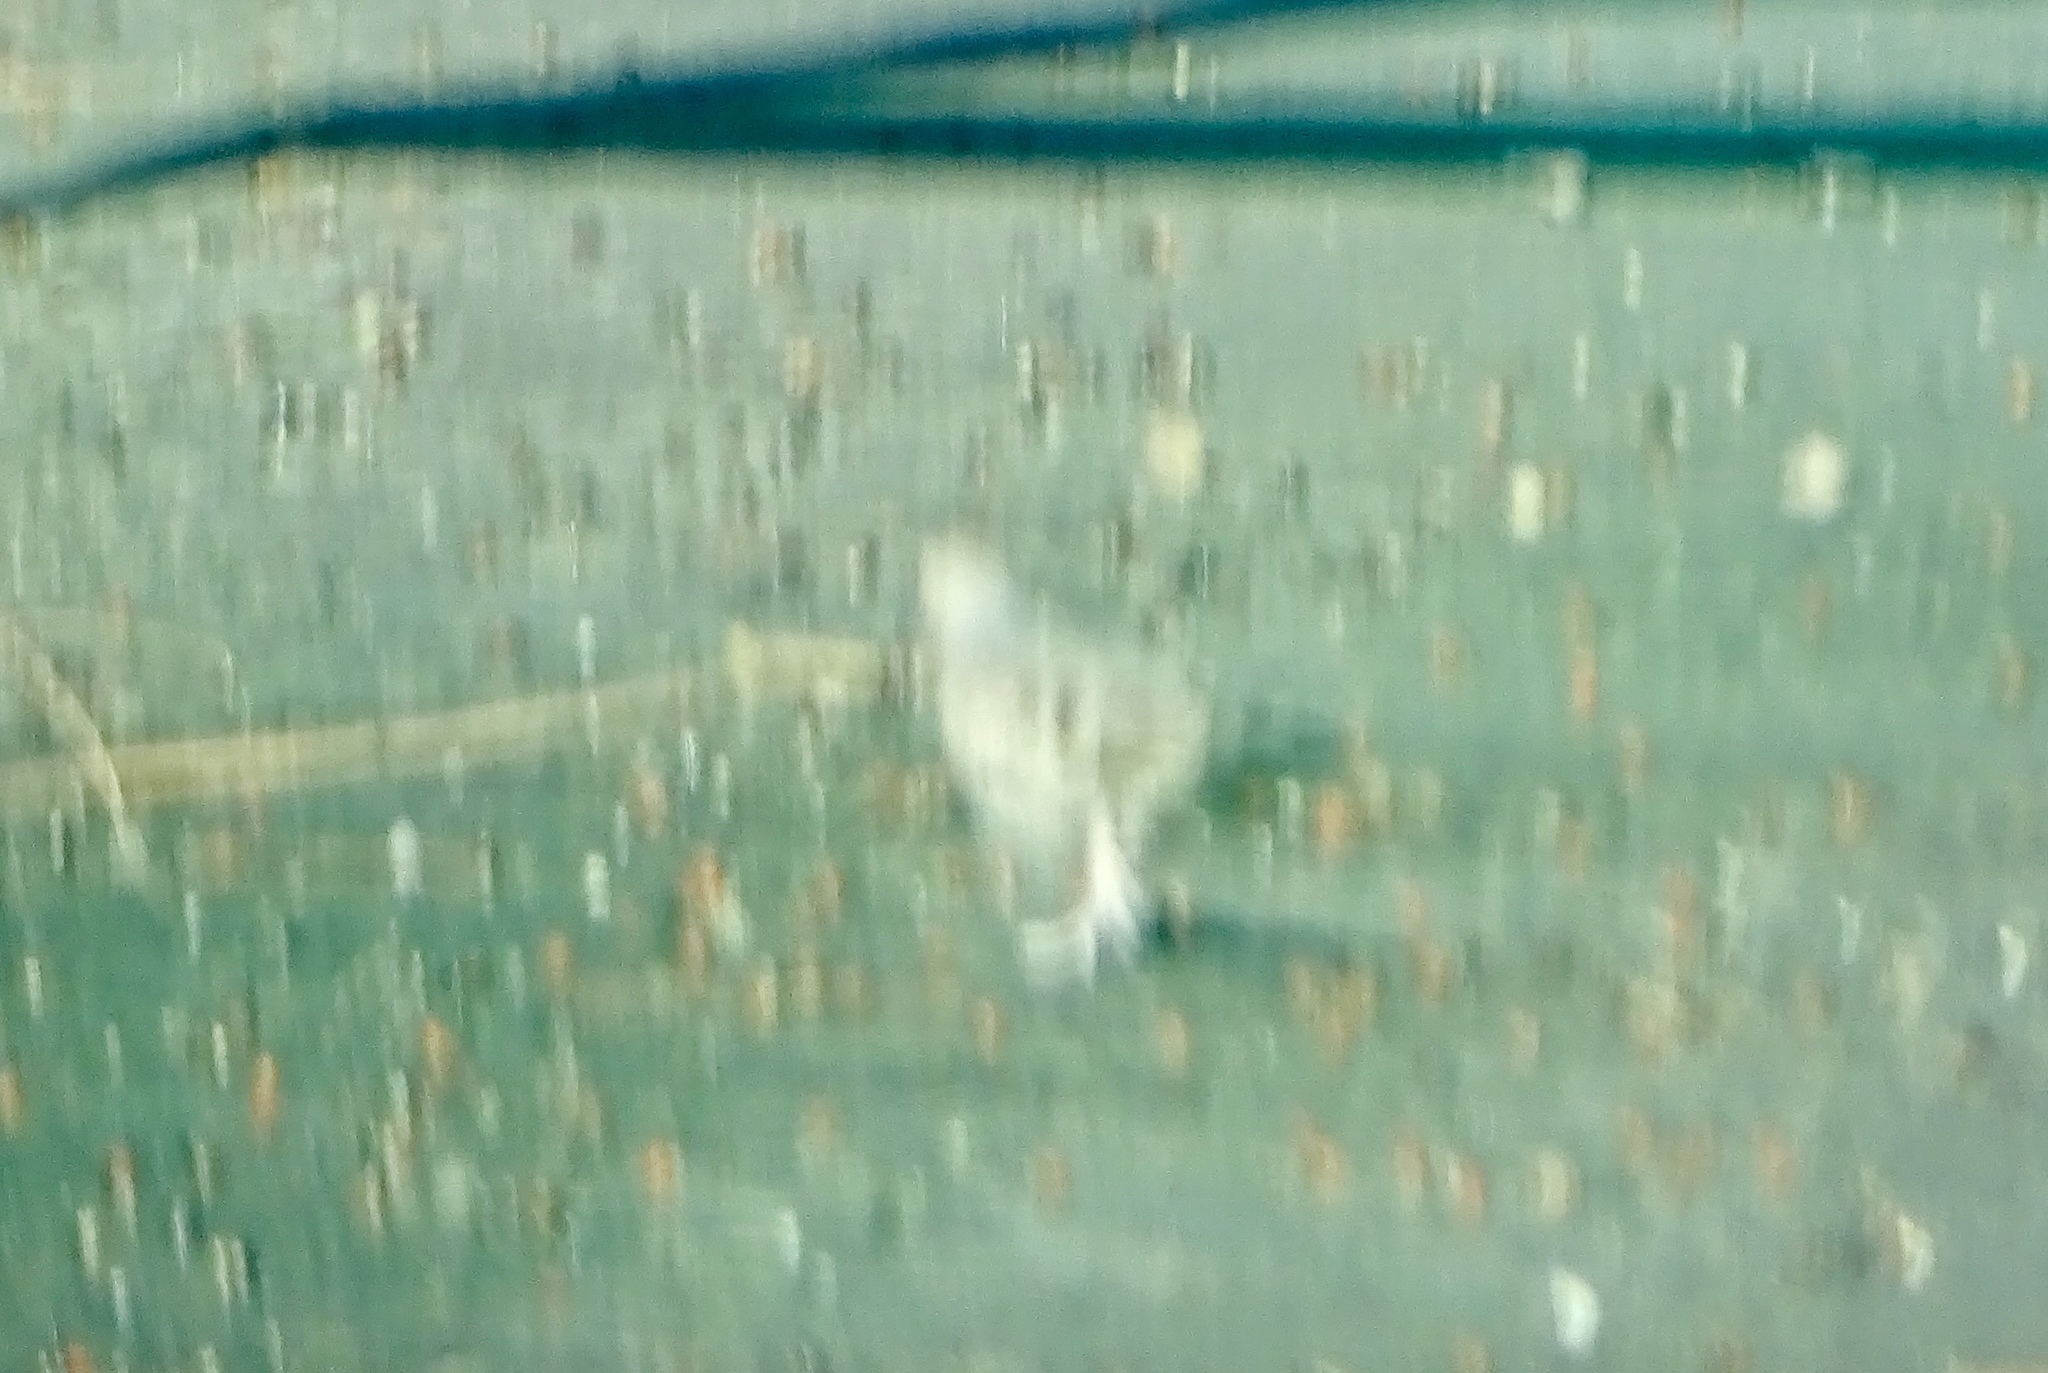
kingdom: Animalia
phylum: Chordata
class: Aves
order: Columbiformes
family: Columbidae
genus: Columbina
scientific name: Columbina passerina
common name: Common ground-dove
